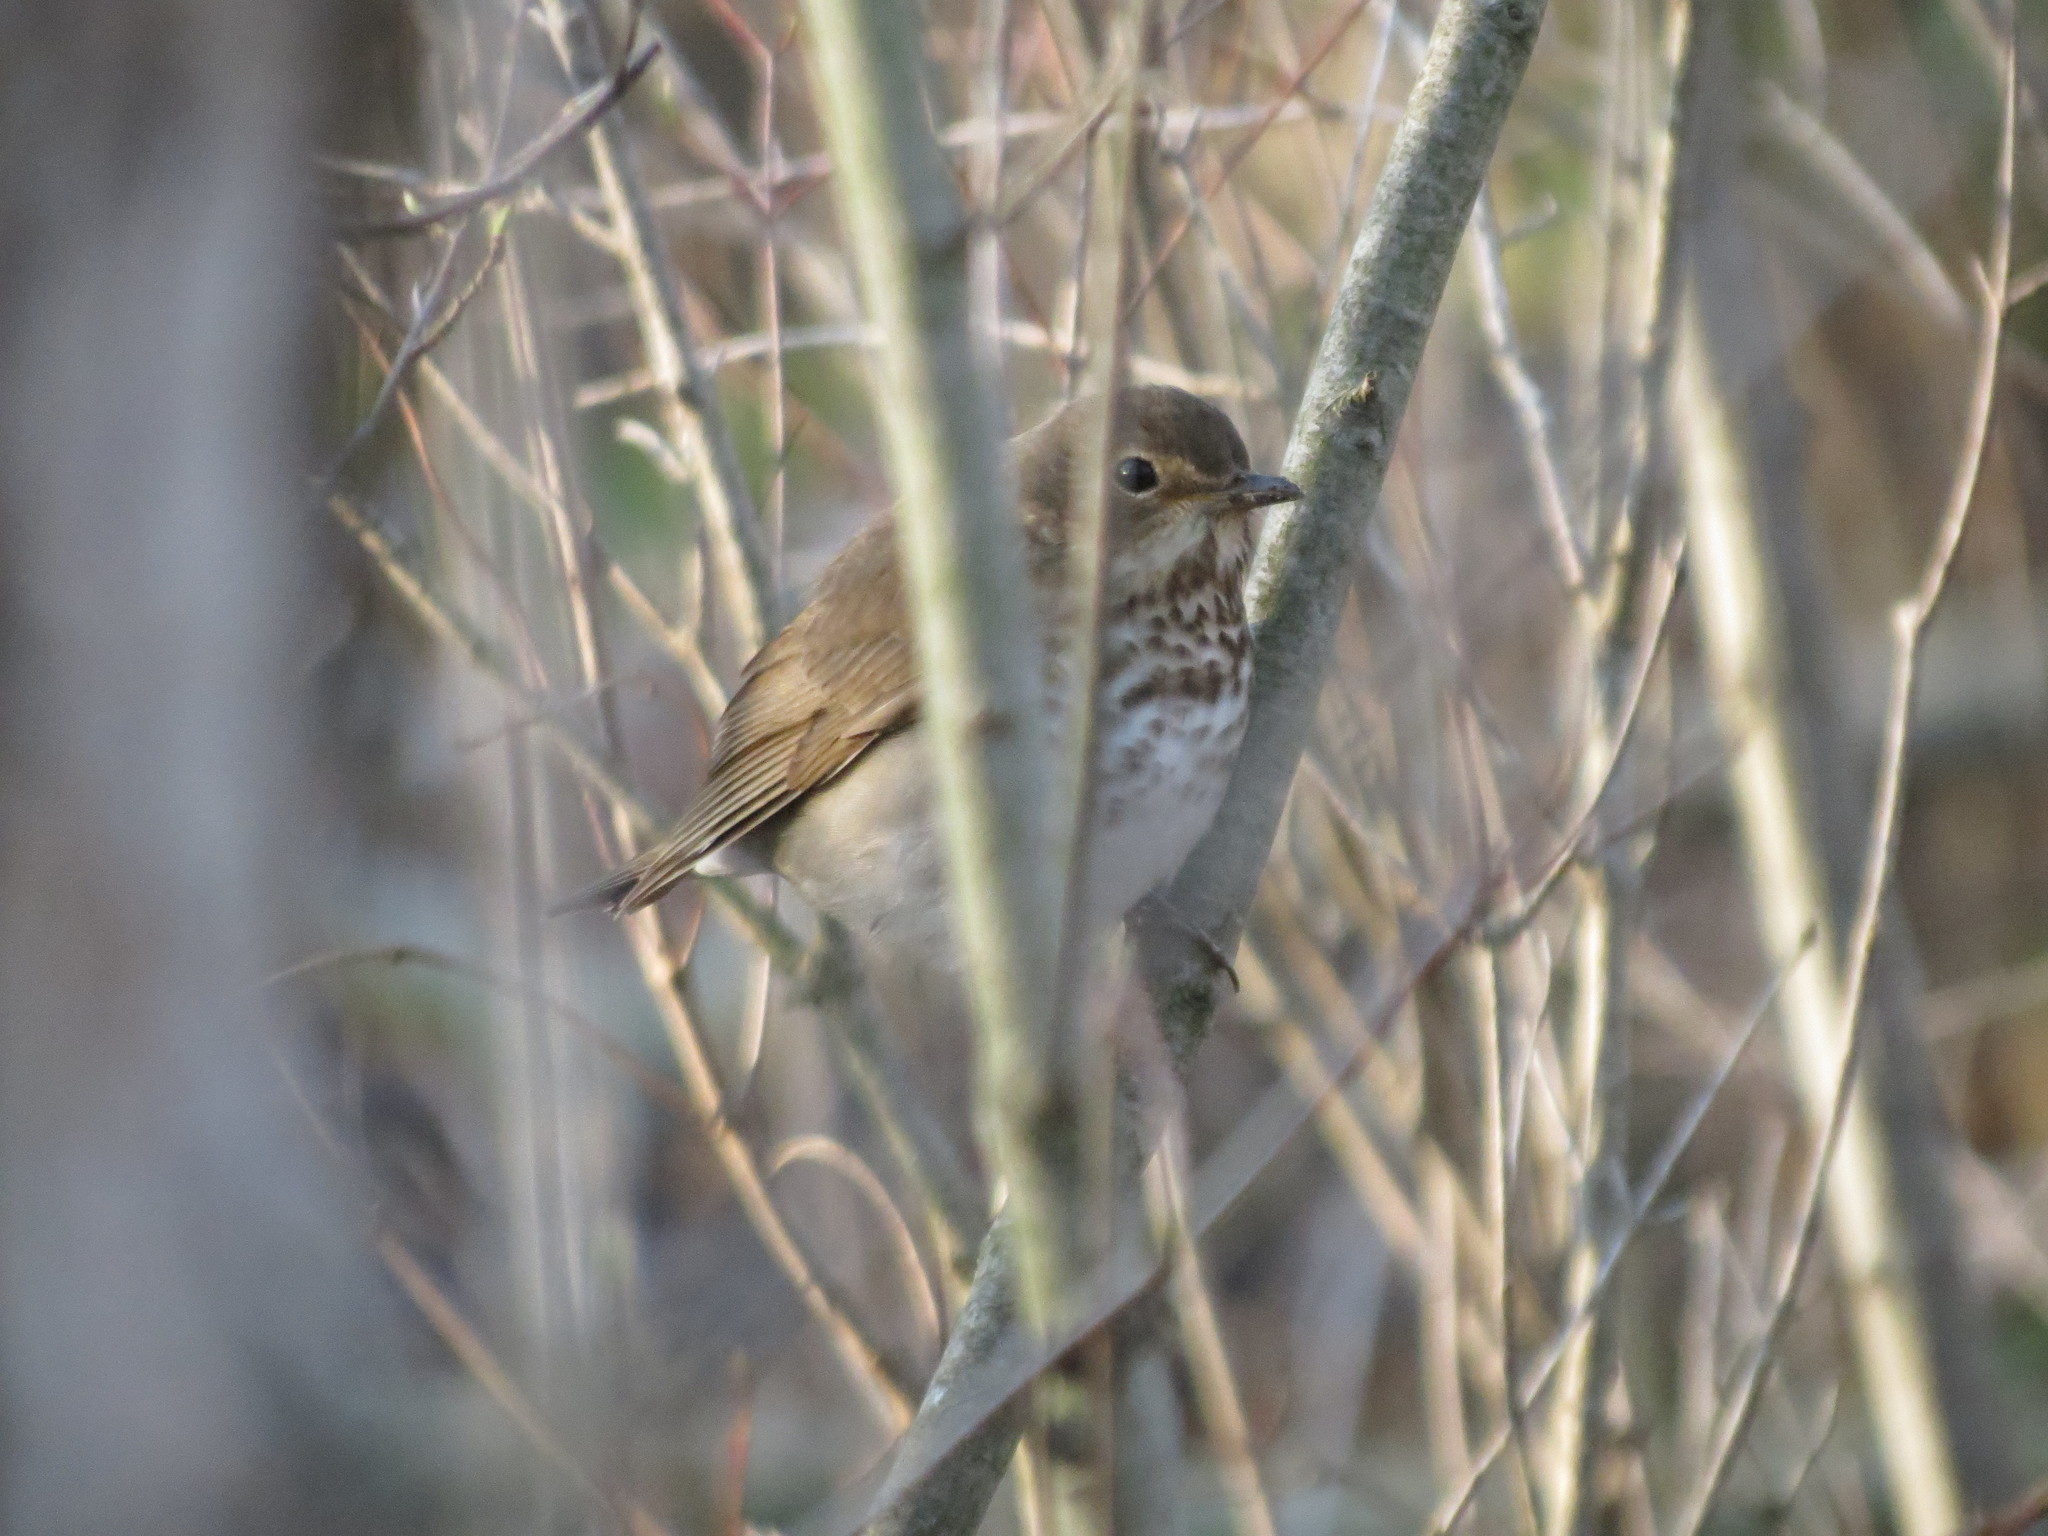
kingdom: Animalia
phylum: Chordata
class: Aves
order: Passeriformes
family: Turdidae
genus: Catharus
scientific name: Catharus ustulatus
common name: Swainson's thrush
